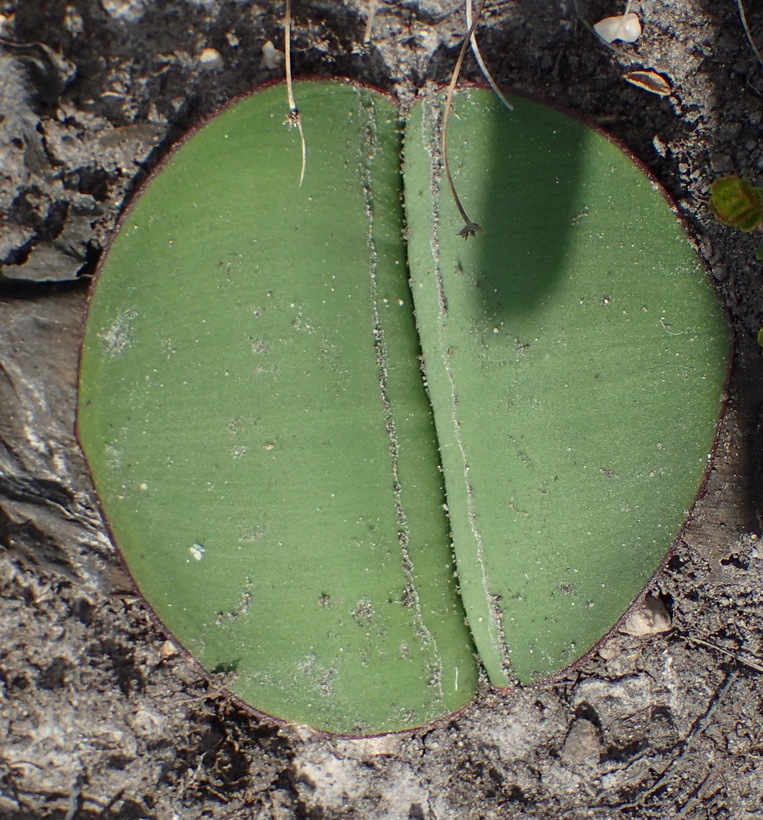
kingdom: Plantae
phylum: Tracheophyta
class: Liliopsida
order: Asparagales
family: Amaryllidaceae
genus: Haemanthus
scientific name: Haemanthus sanguineus
